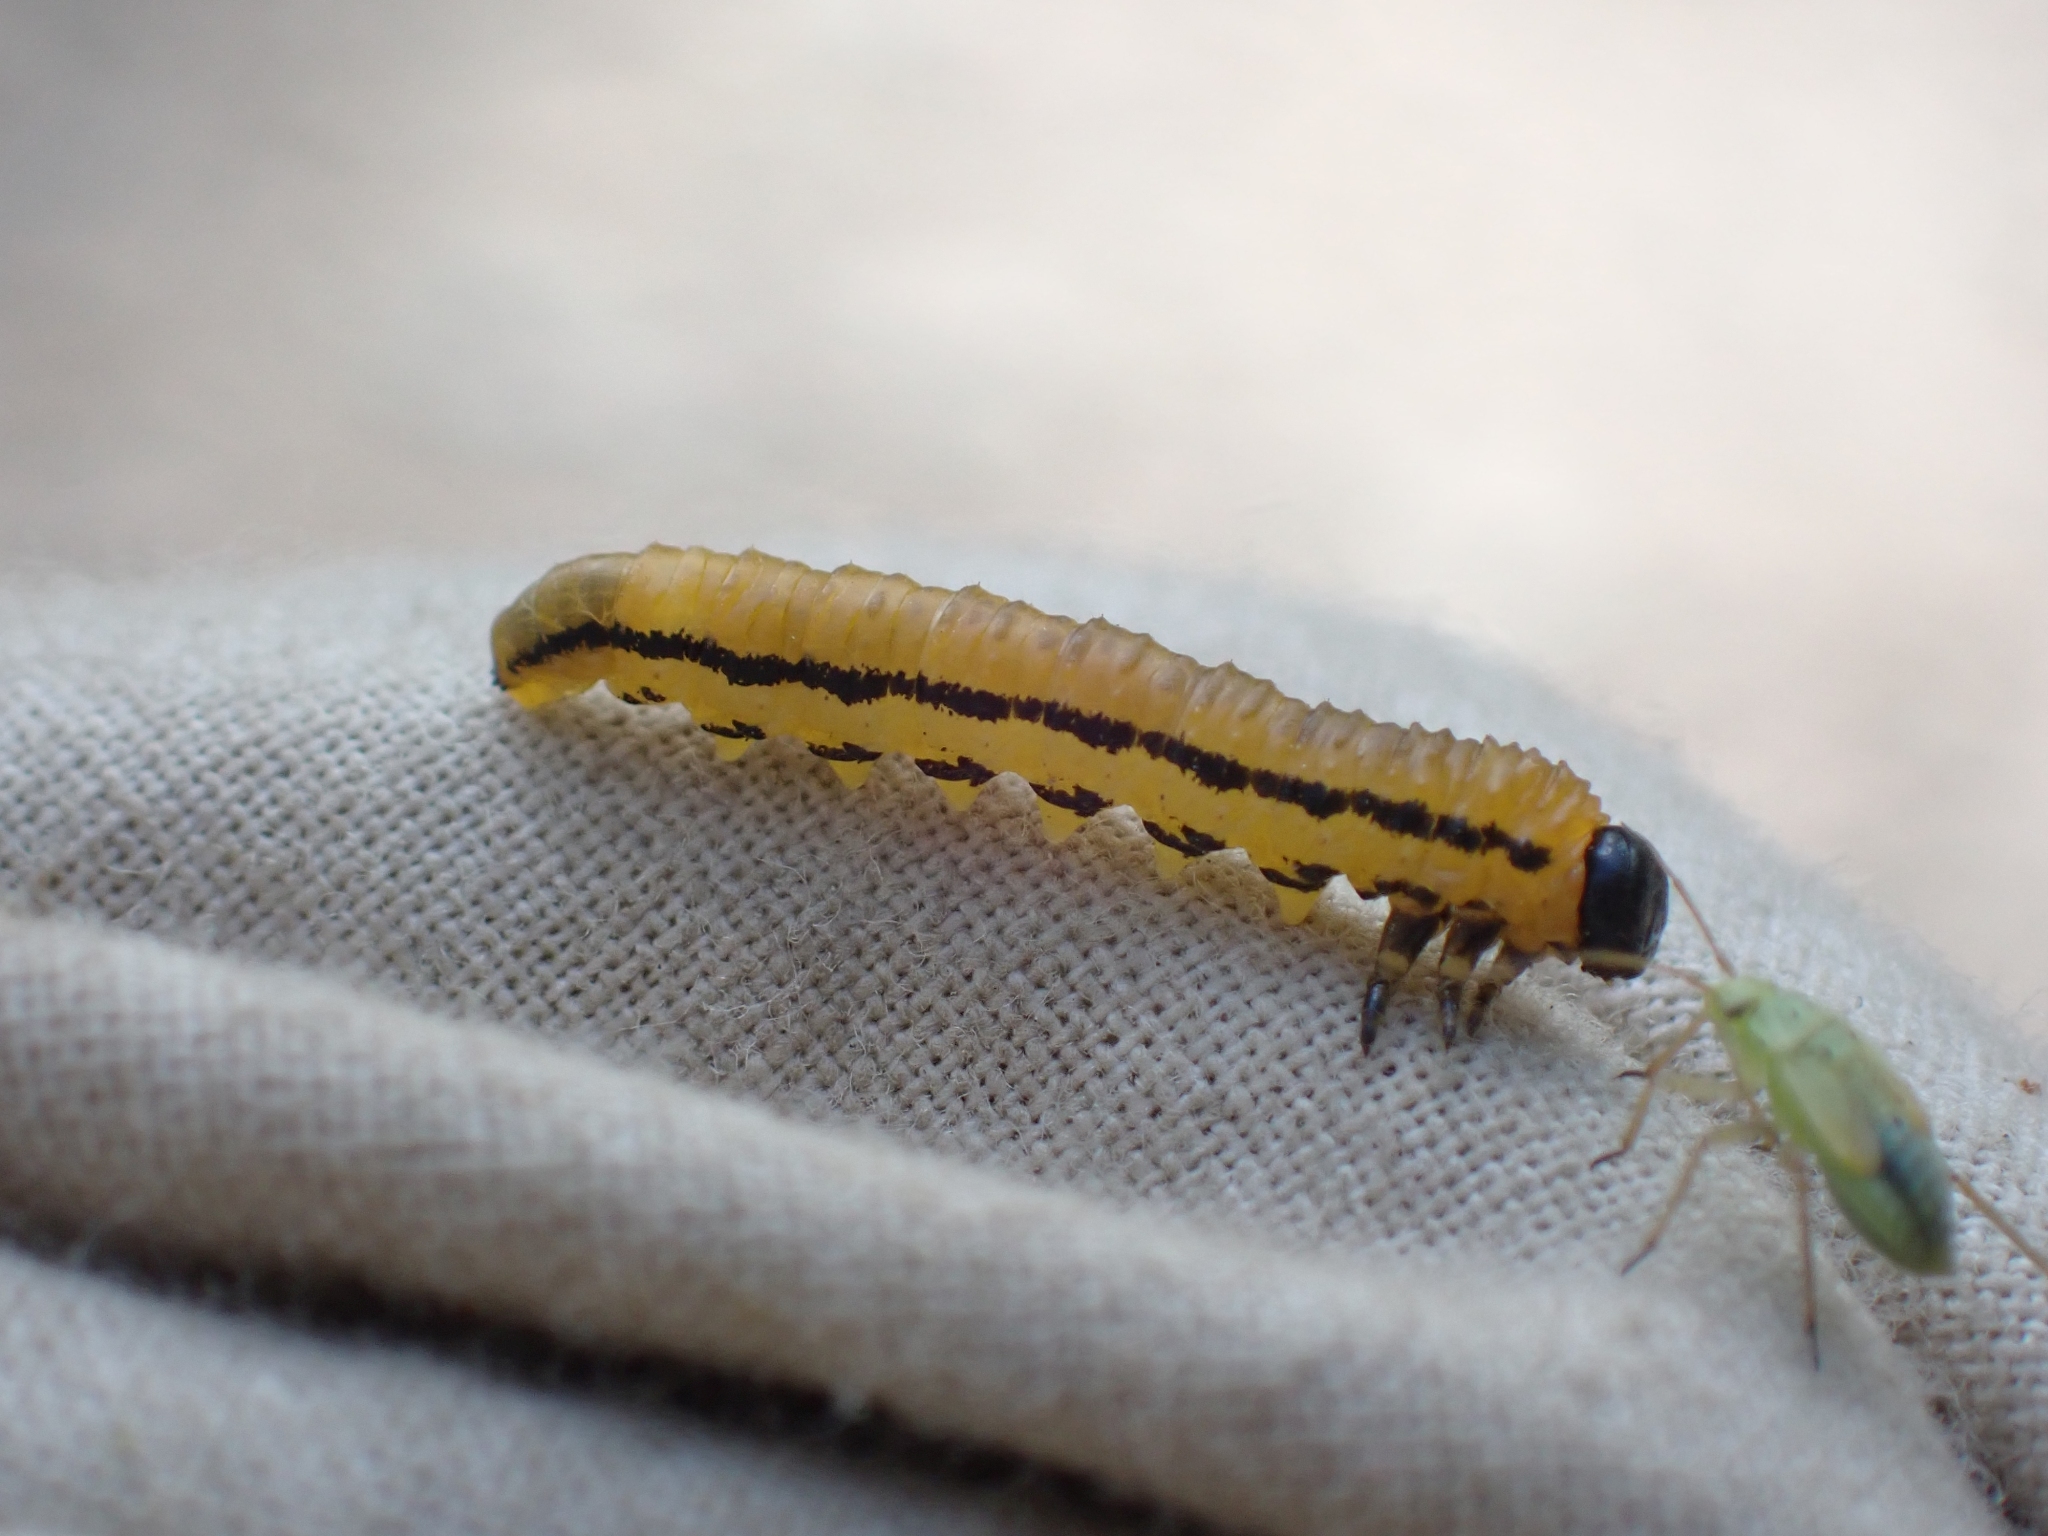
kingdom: Animalia
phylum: Arthropoda
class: Insecta
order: Hymenoptera
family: Tenthredinidae
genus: Hemichroa
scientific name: Hemichroa crocea
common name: Striped alder sawfly
